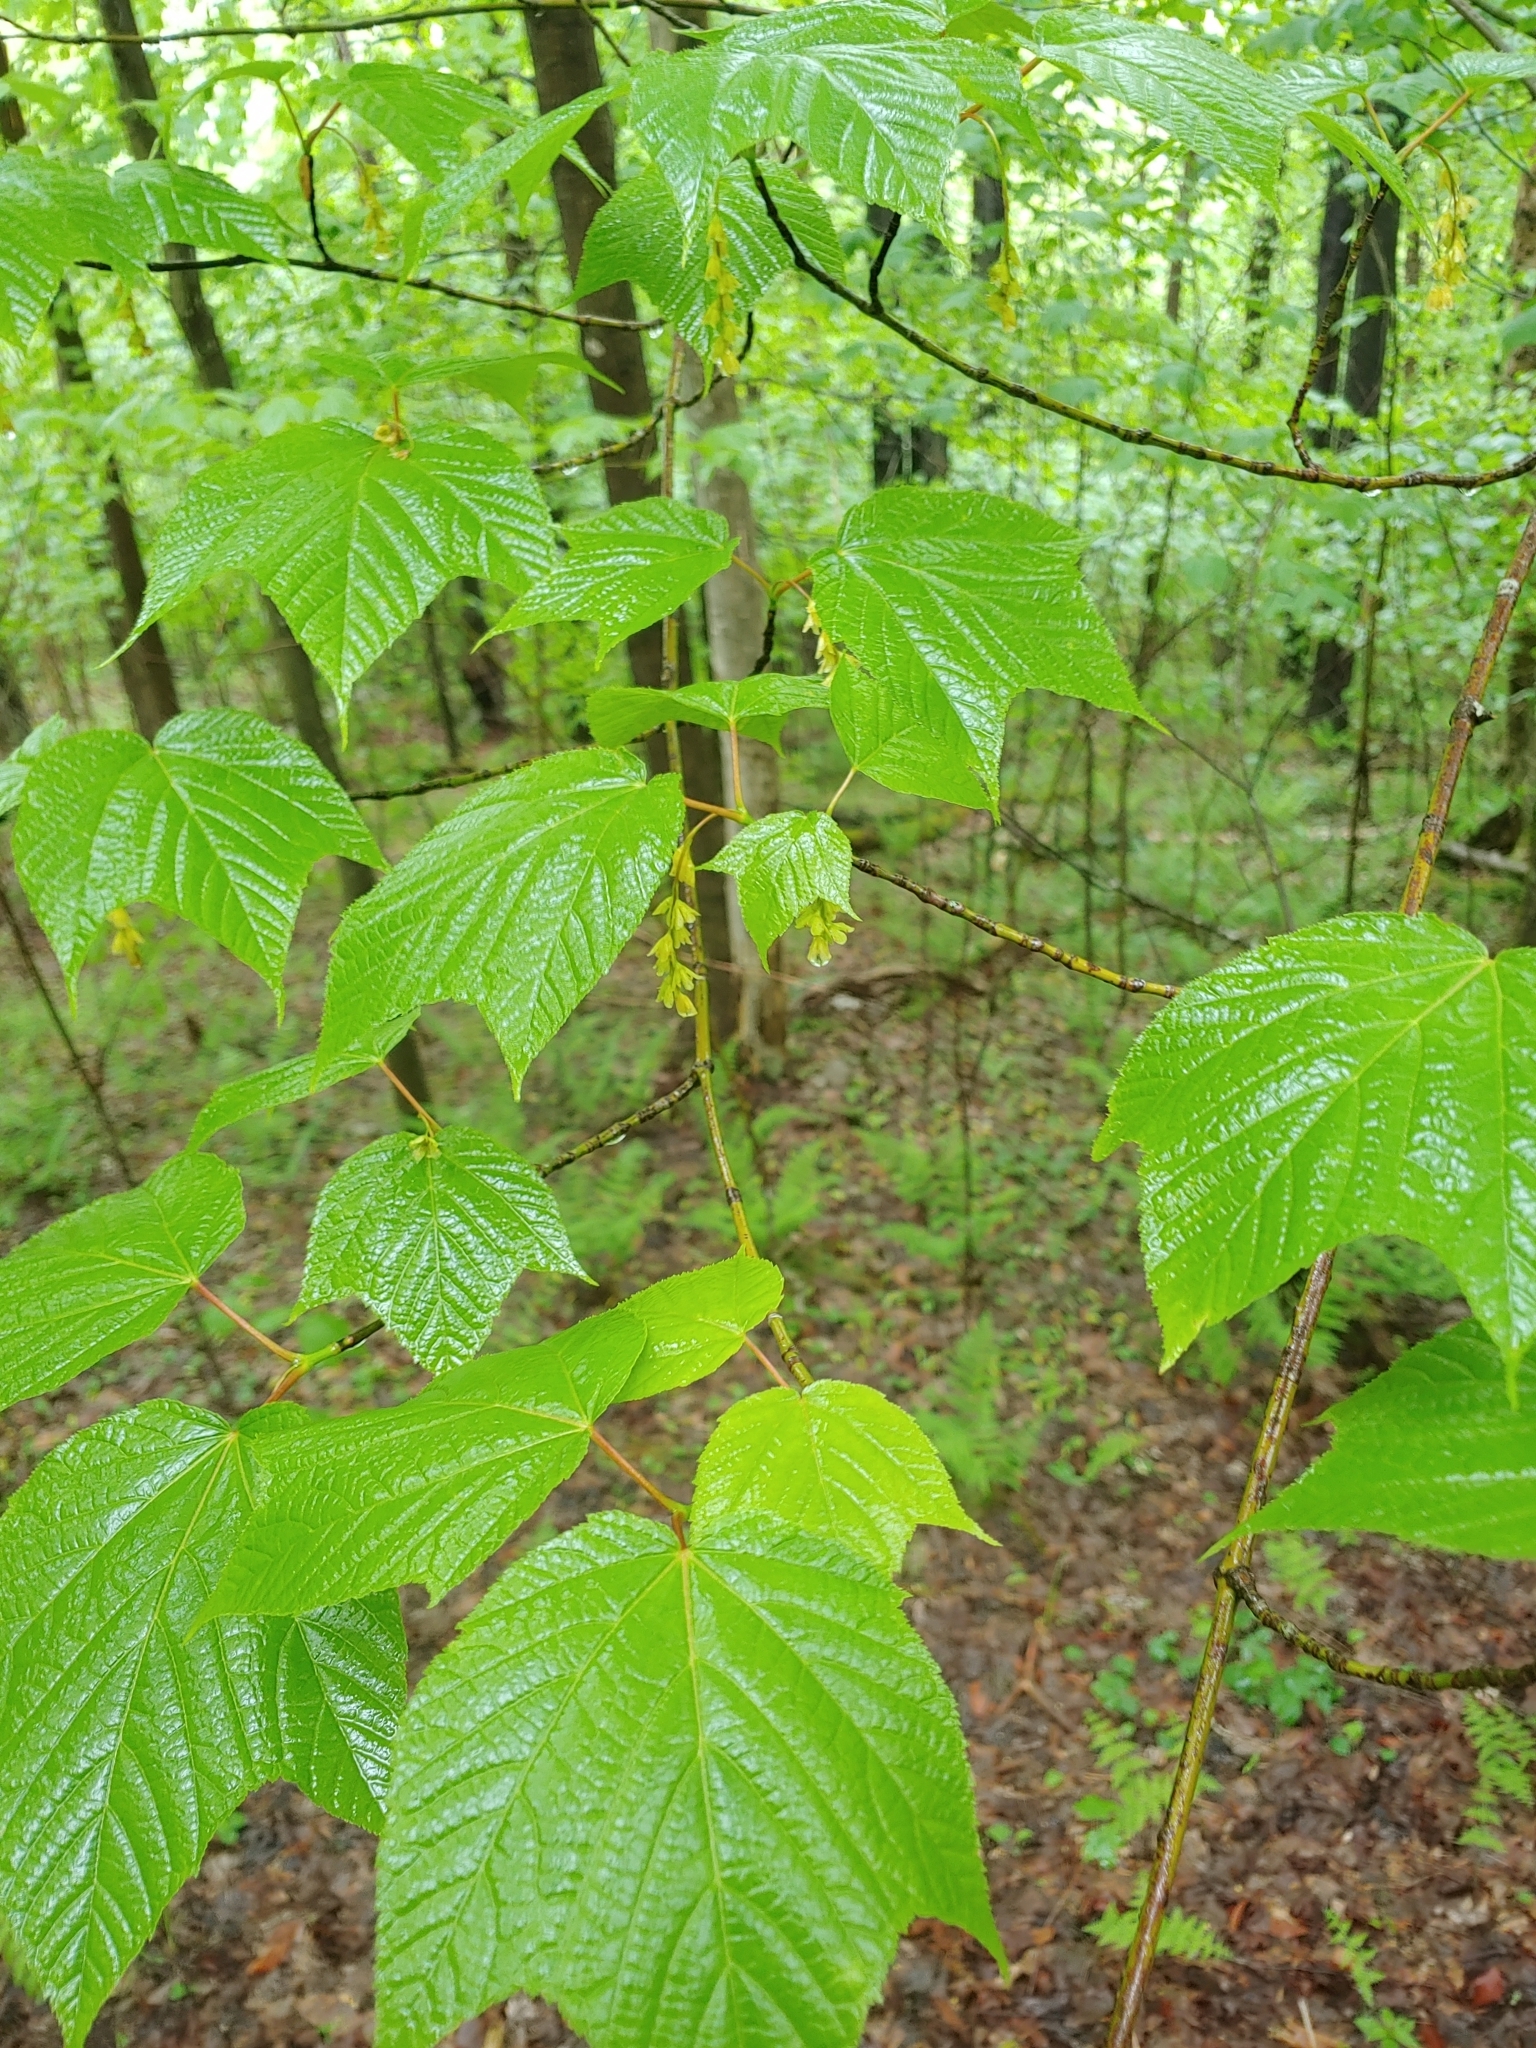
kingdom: Plantae
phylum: Tracheophyta
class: Magnoliopsida
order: Sapindales
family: Sapindaceae
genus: Acer
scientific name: Acer pensylvanicum
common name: Moosewood
